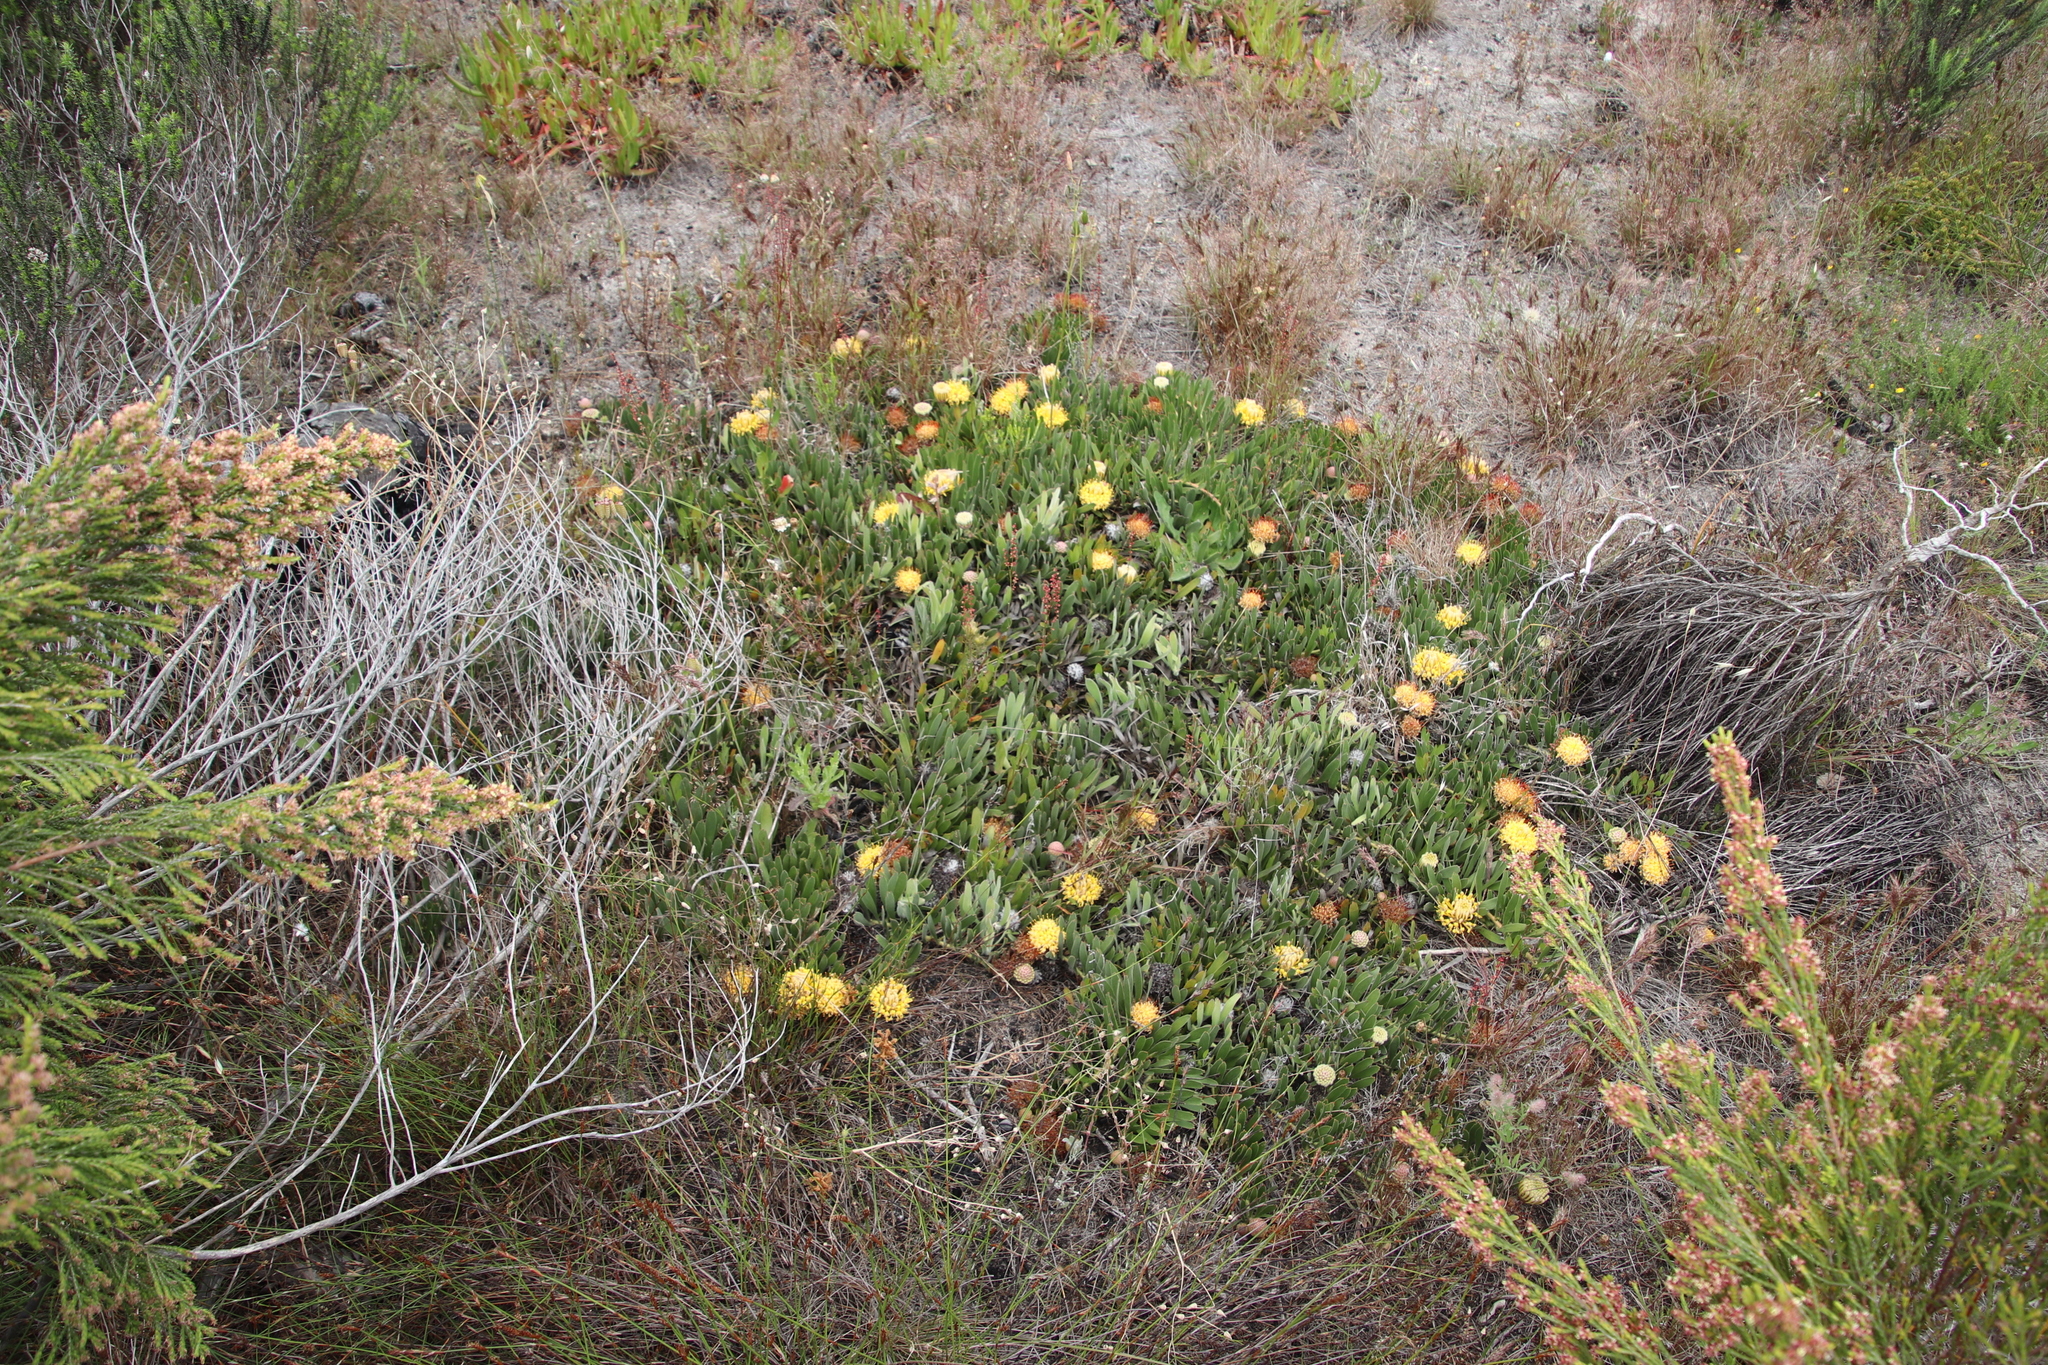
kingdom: Plantae
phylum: Tracheophyta
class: Magnoliopsida
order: Proteales
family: Proteaceae
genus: Leucospermum
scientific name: Leucospermum hypophyllocarpodendron
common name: Snakestem pincushion
